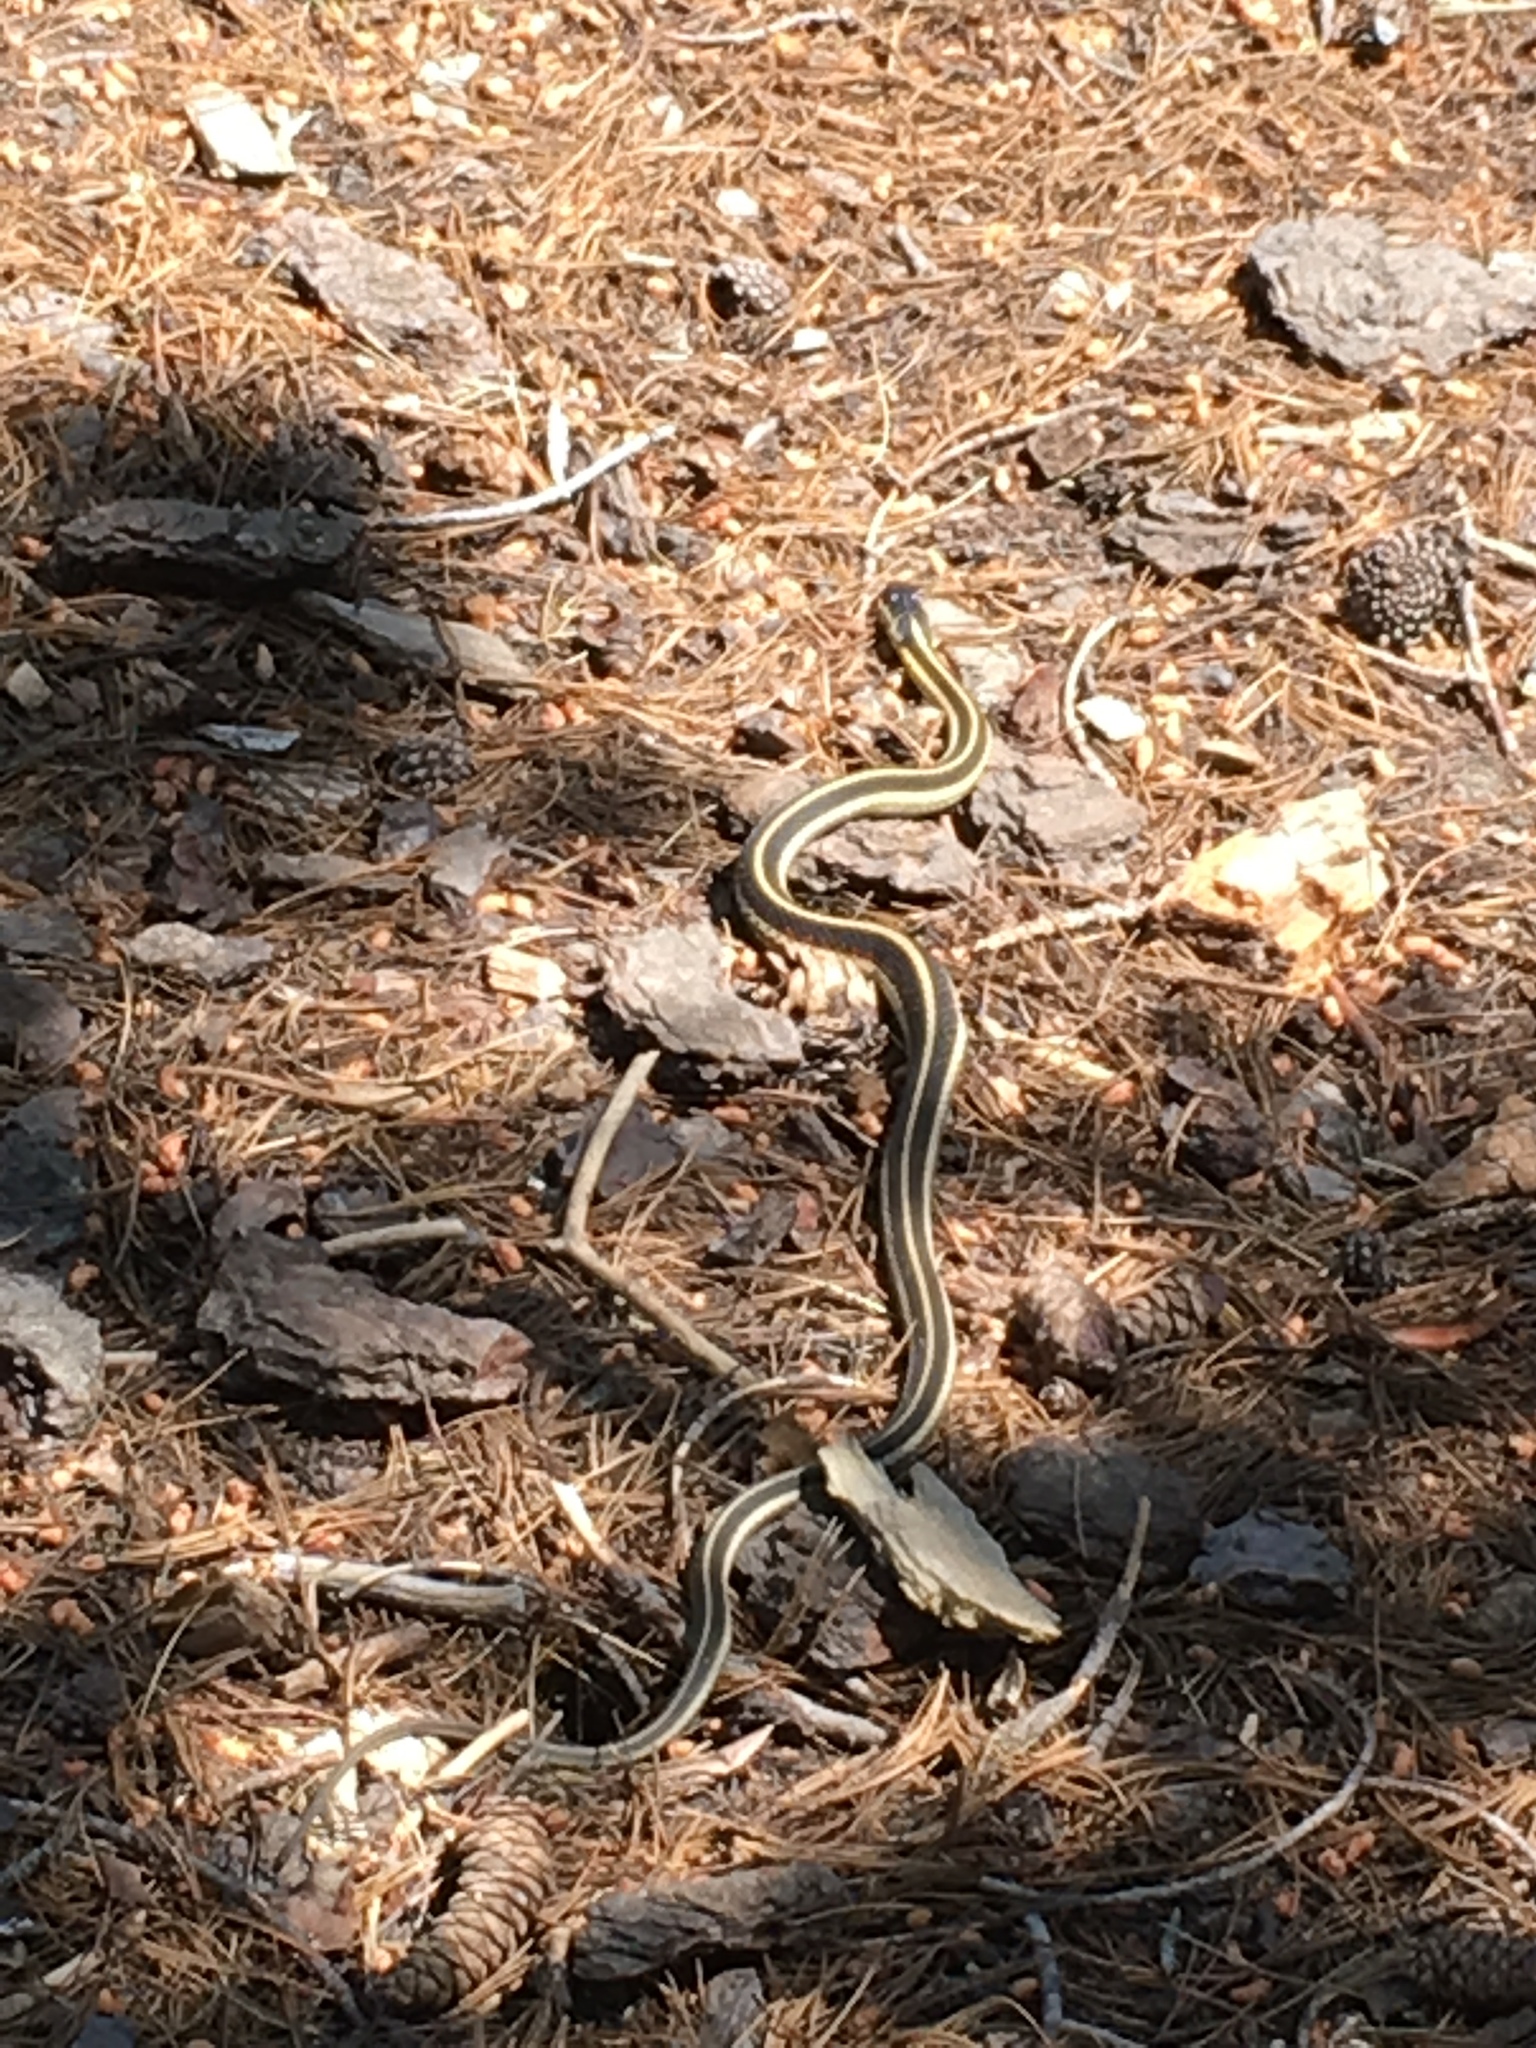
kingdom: Animalia
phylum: Chordata
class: Squamata
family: Colubridae
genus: Thamnophis
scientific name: Thamnophis sirtalis
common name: Common garter snake
